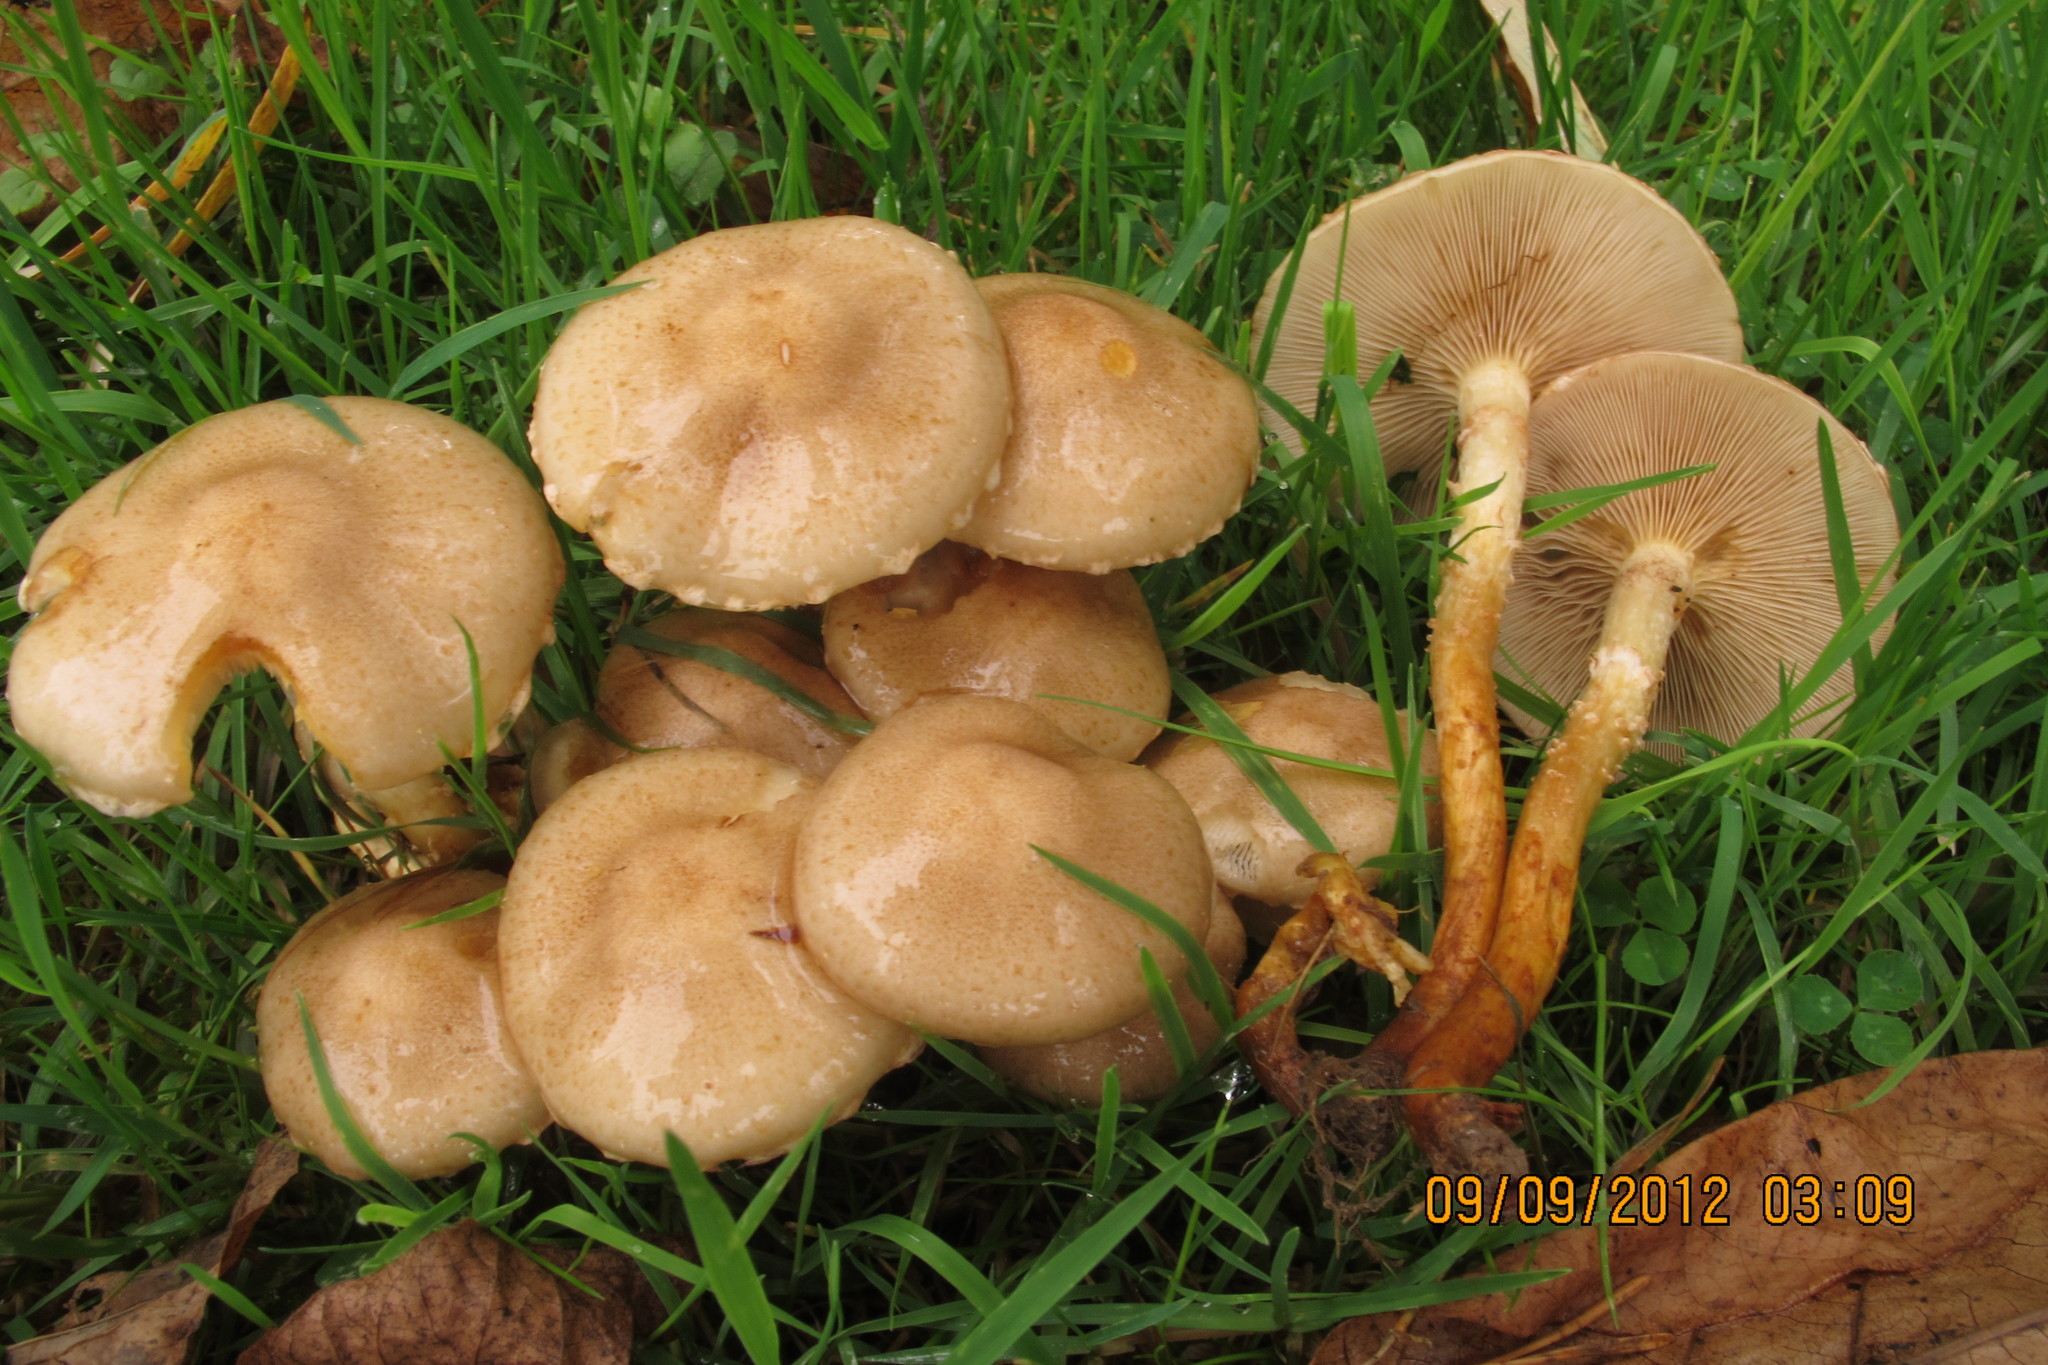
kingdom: Fungi
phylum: Basidiomycota
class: Agaricomycetes
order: Agaricales
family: Strophariaceae
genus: Pholiota
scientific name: Pholiota angustipes
